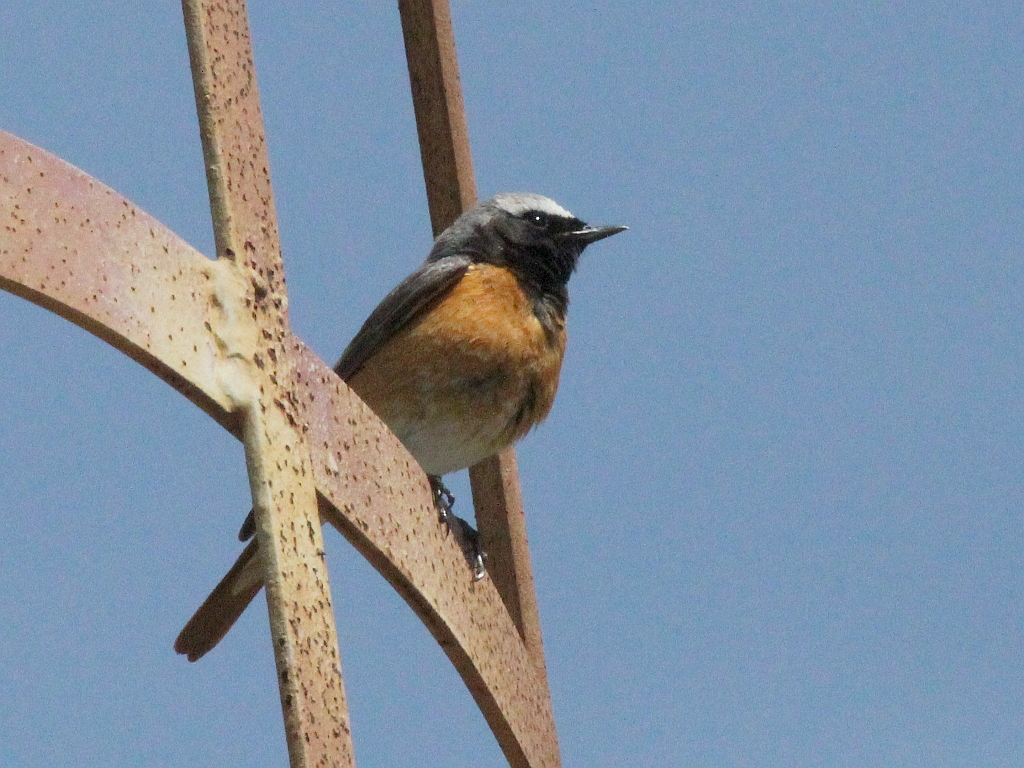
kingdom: Animalia
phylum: Chordata
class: Aves
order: Passeriformes
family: Muscicapidae
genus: Phoenicurus
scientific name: Phoenicurus phoenicurus
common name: Common redstart
